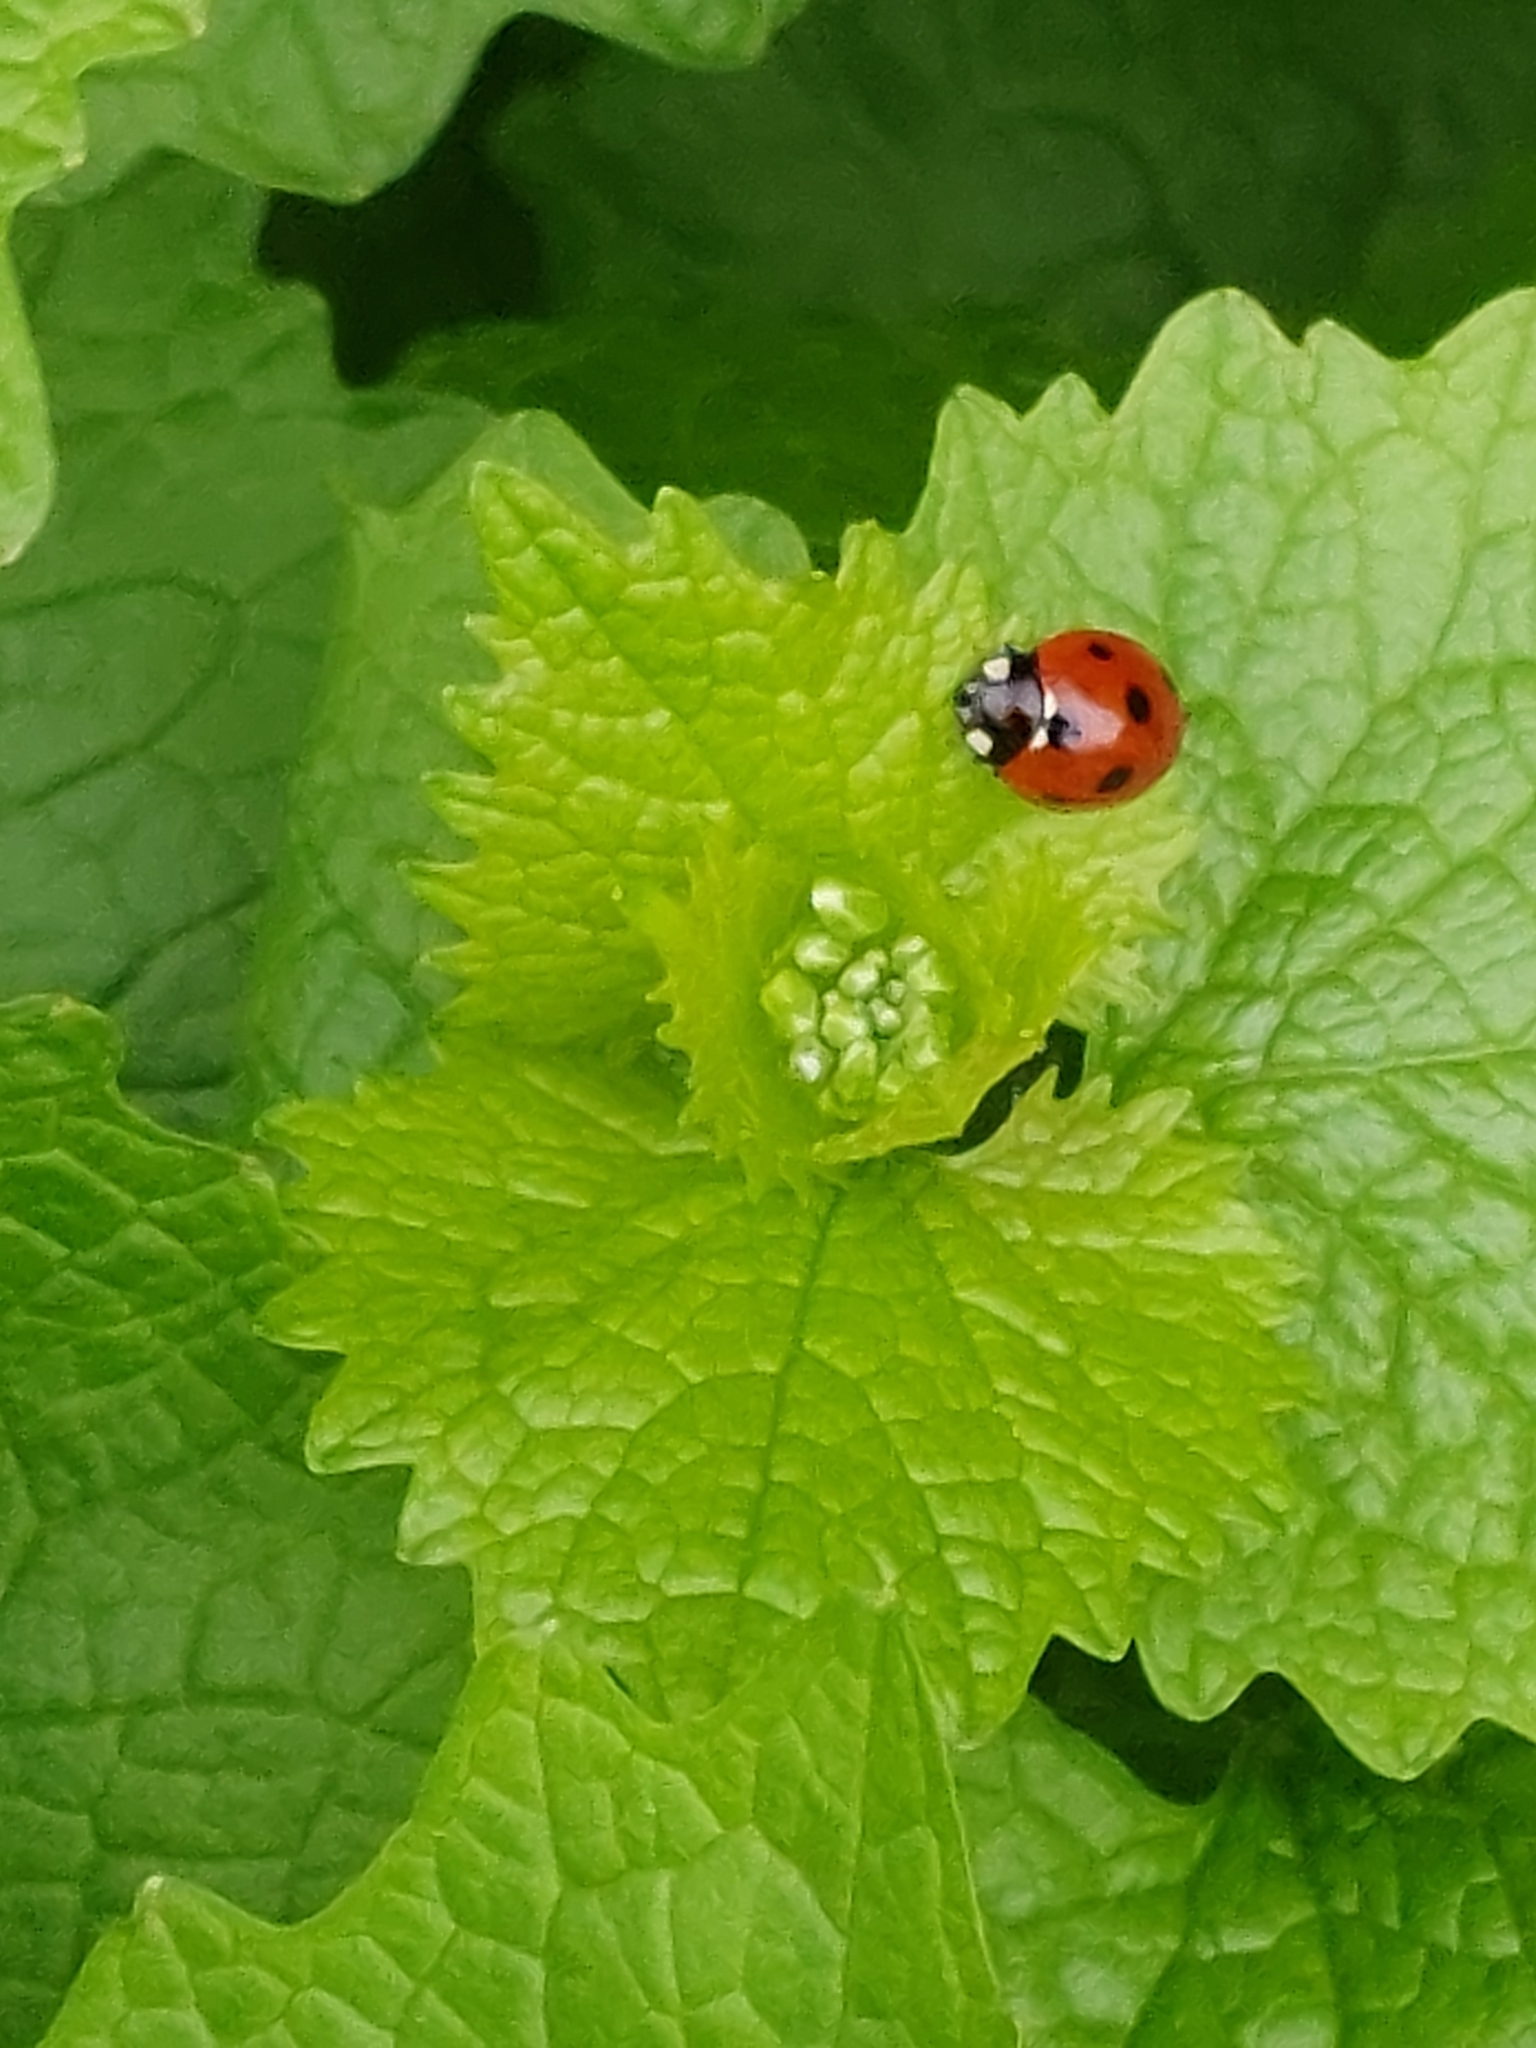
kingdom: Animalia
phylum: Arthropoda
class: Insecta
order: Coleoptera
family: Coccinellidae
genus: Coccinella
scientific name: Coccinella septempunctata
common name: Sevenspotted lady beetle
